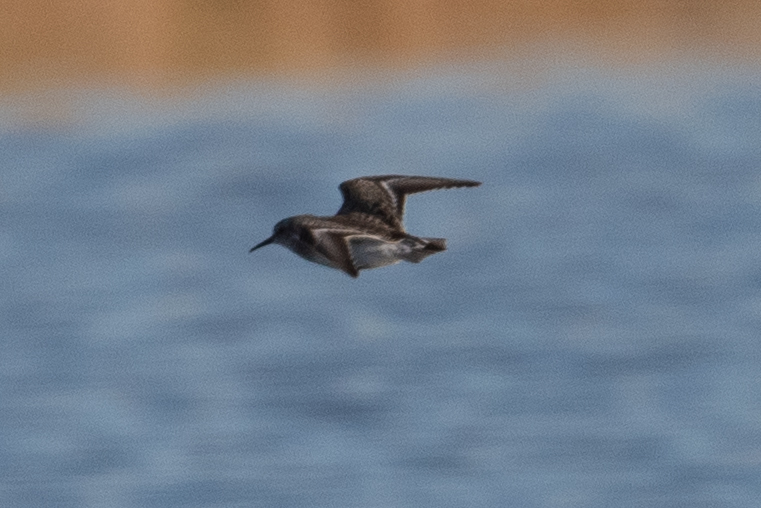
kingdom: Animalia
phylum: Chordata
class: Aves
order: Charadriiformes
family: Scolopacidae
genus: Calidris
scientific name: Calidris minutilla
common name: Least sandpiper
